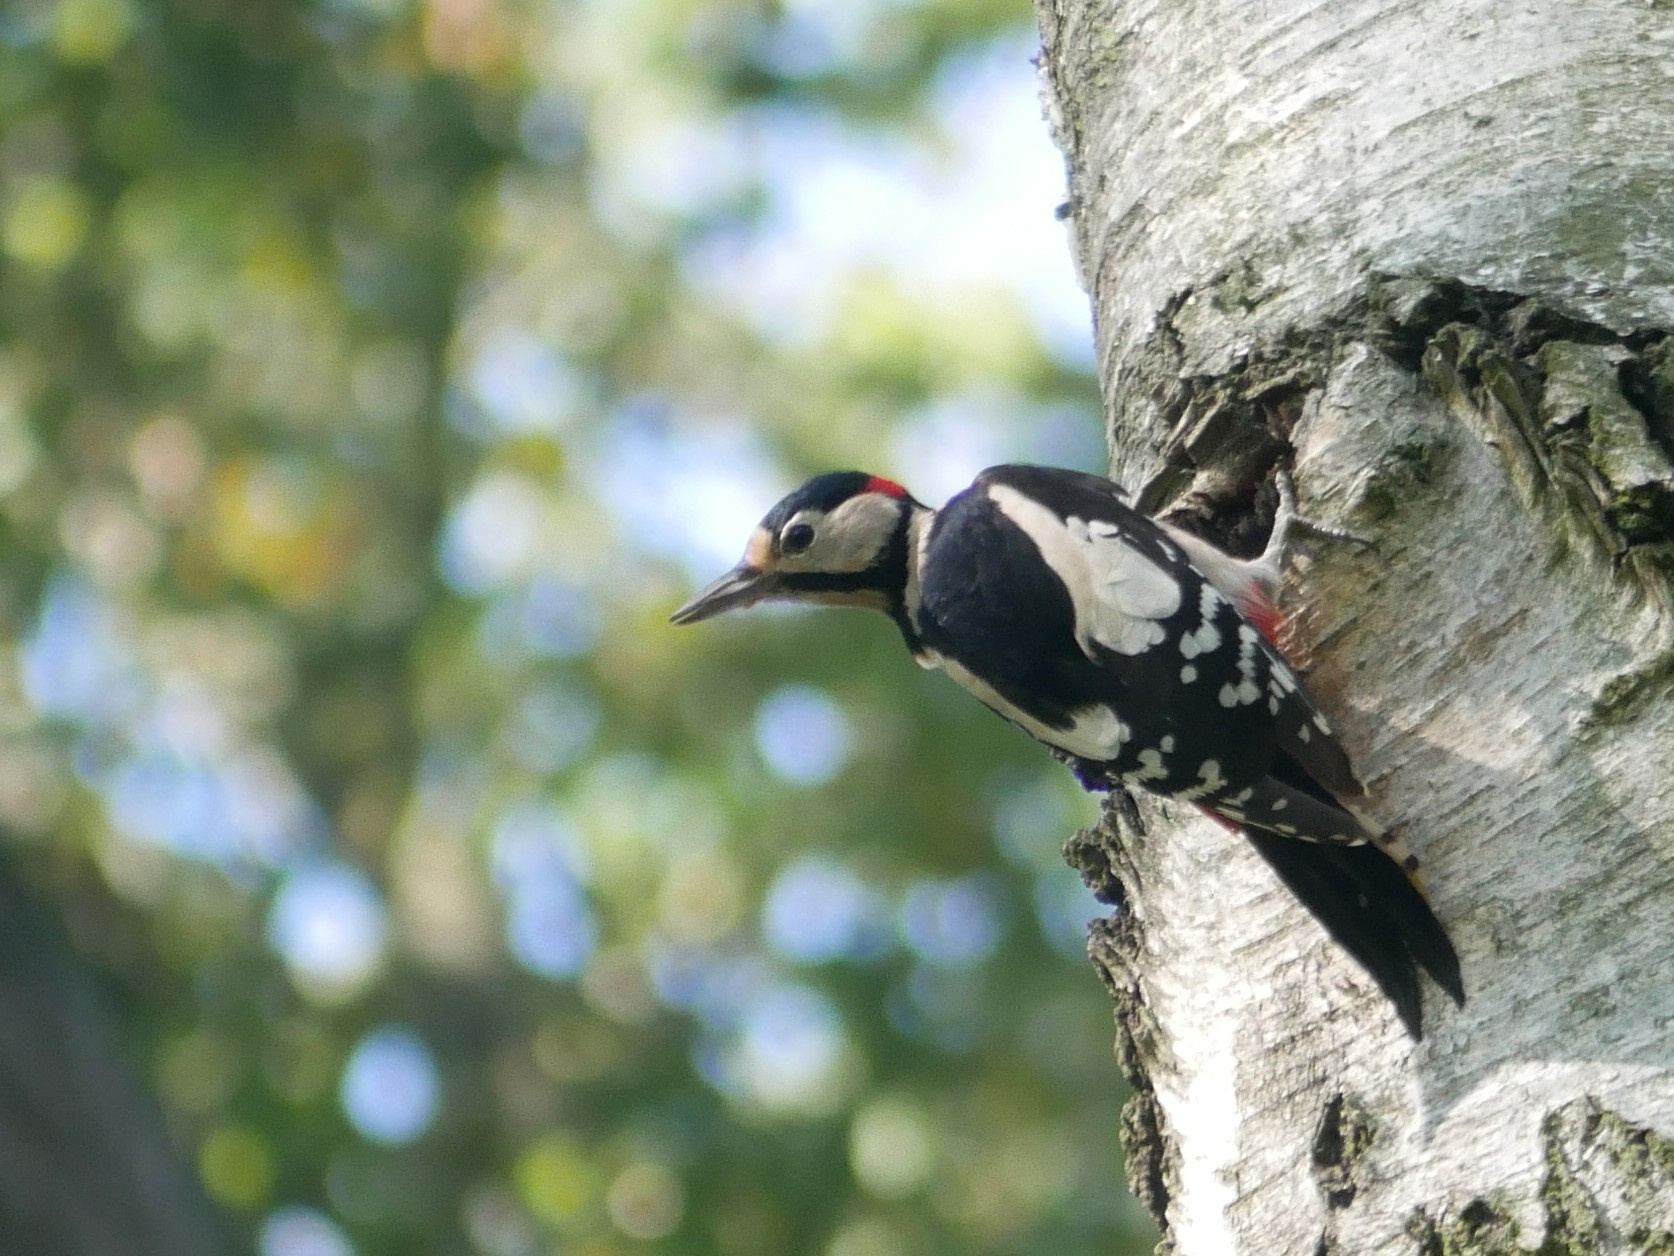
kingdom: Animalia
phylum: Chordata
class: Aves
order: Piciformes
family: Picidae
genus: Dendrocopos
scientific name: Dendrocopos major
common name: Great spotted woodpecker
